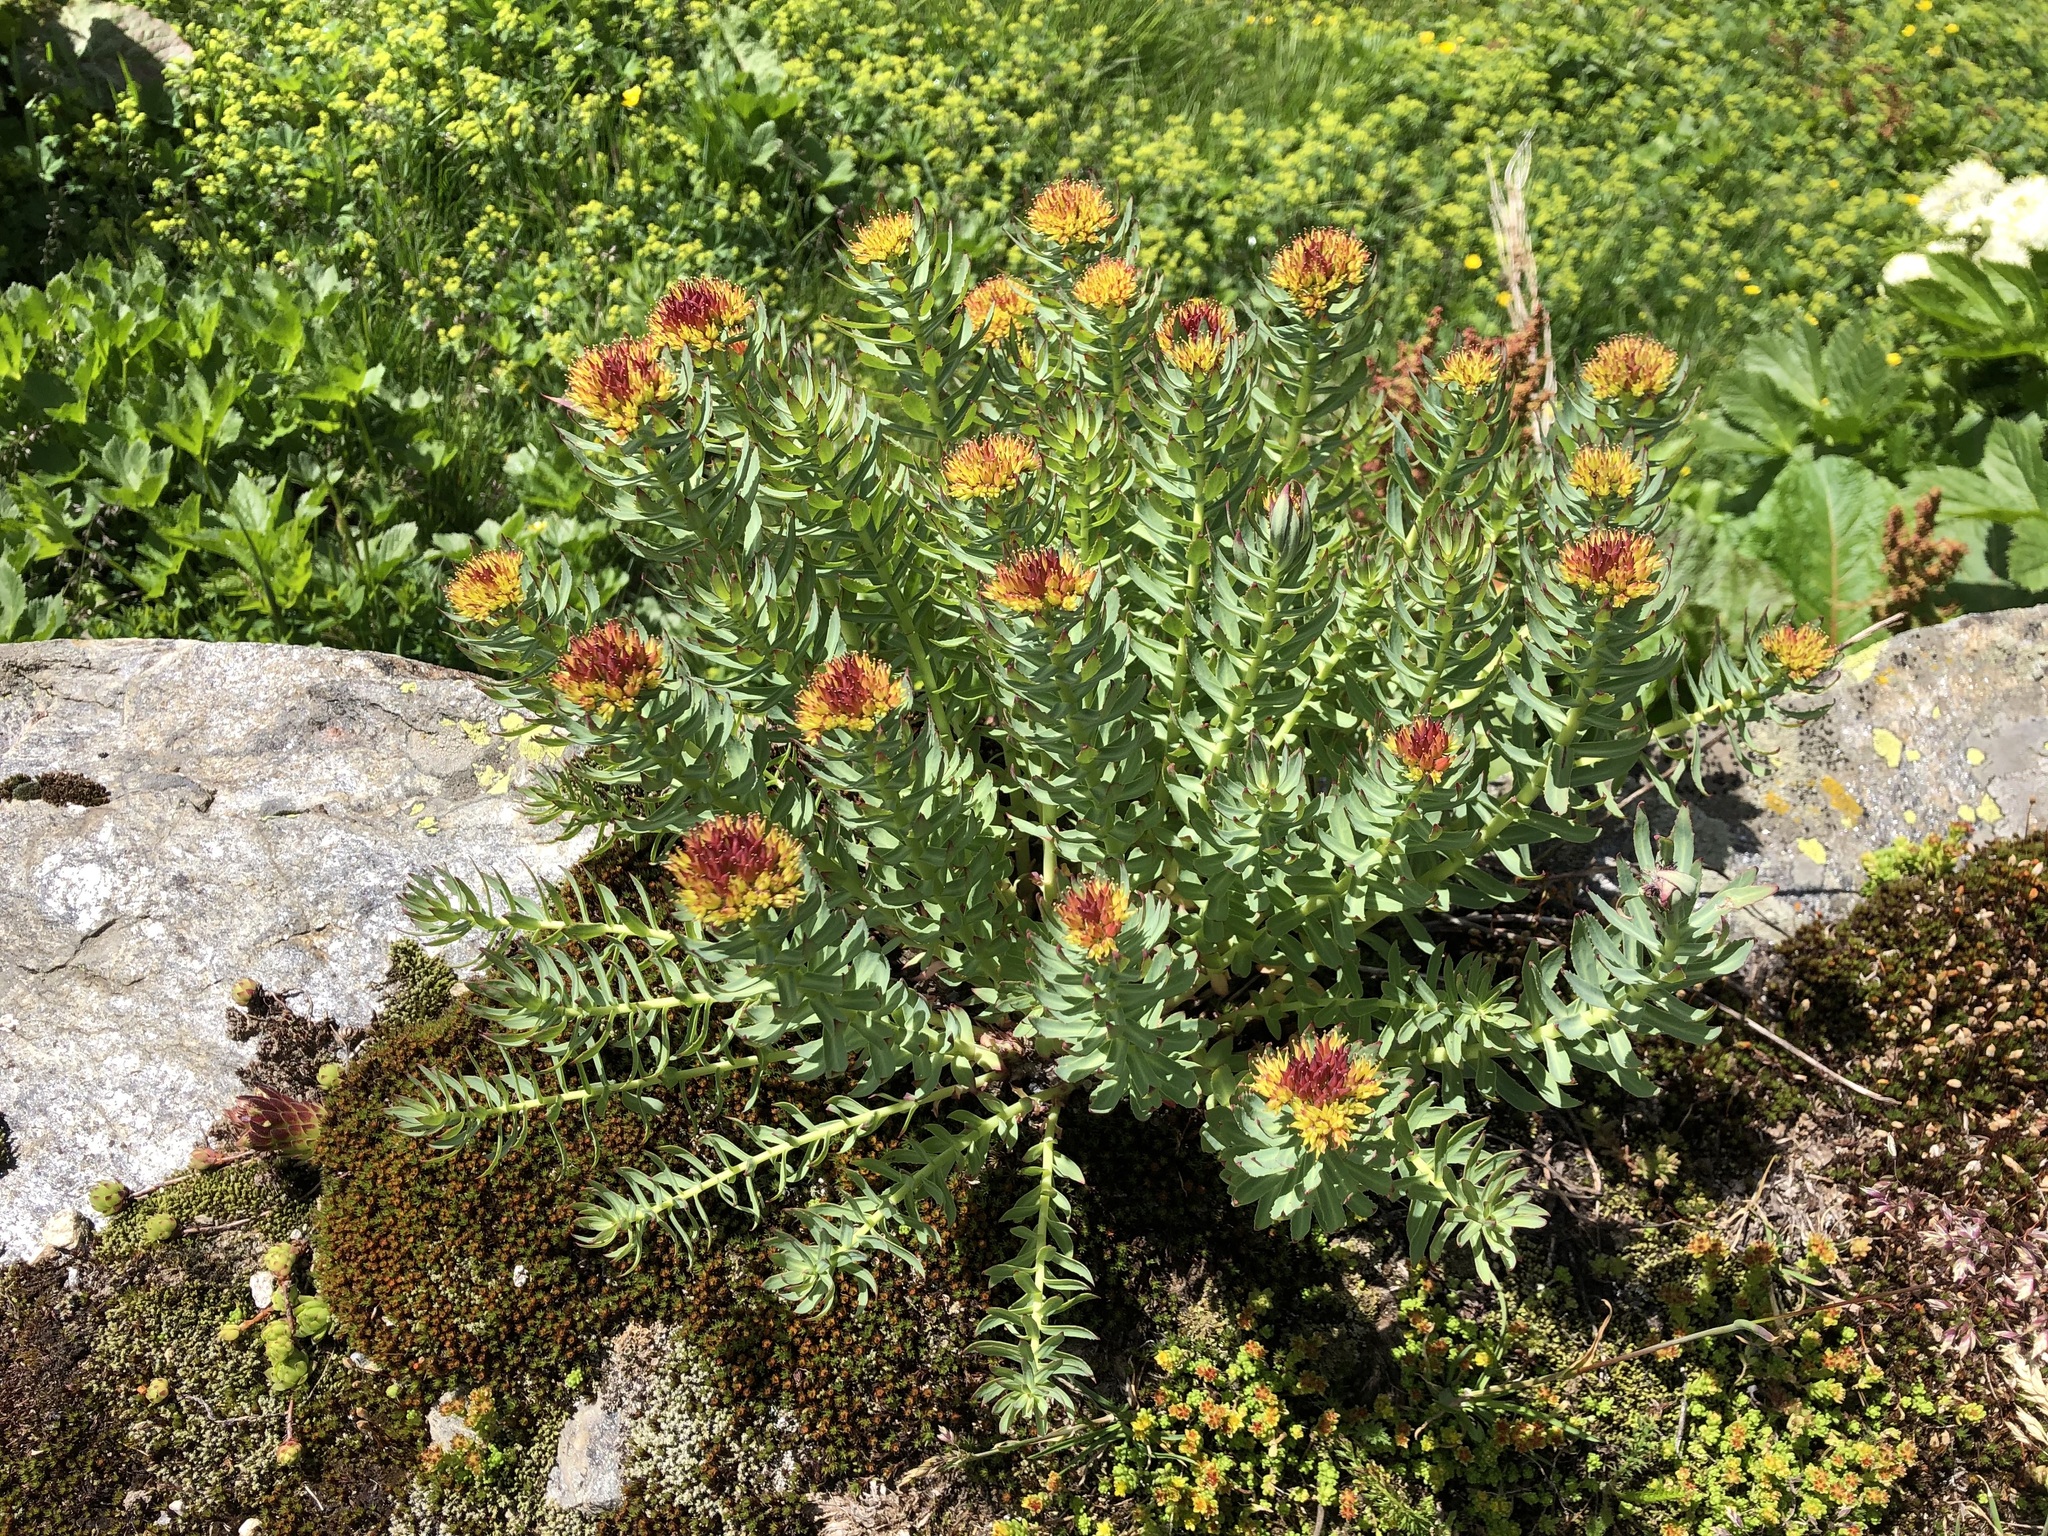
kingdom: Plantae
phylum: Tracheophyta
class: Magnoliopsida
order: Saxifragales
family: Crassulaceae
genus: Rhodiola
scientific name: Rhodiola rosea
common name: Roseroot
